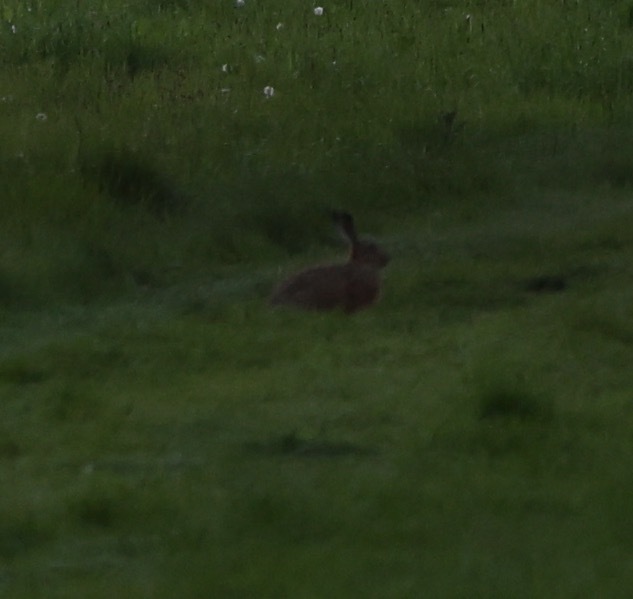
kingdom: Animalia
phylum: Chordata
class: Mammalia
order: Lagomorpha
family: Leporidae
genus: Lepus
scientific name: Lepus europaeus
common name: European hare
